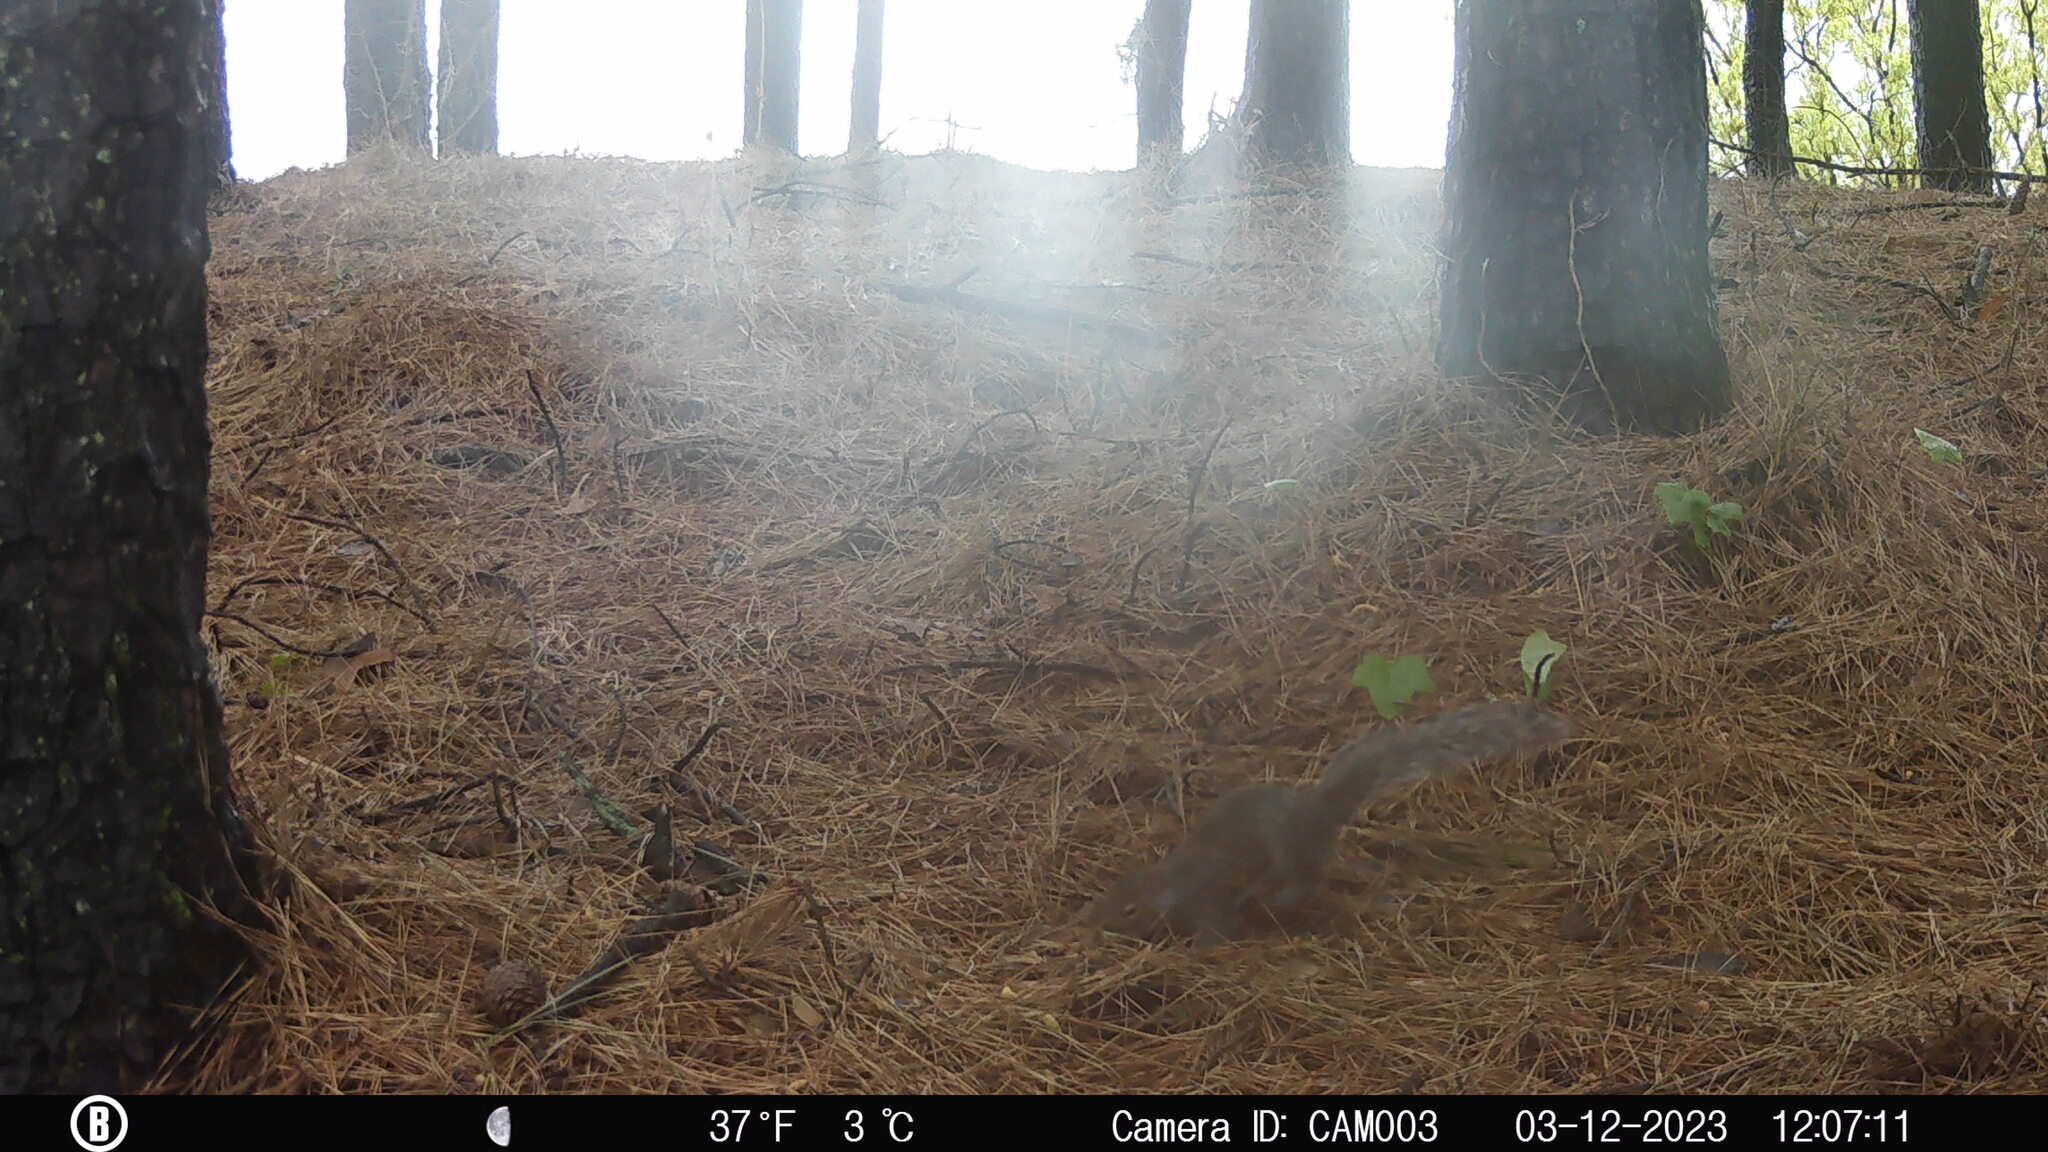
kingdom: Animalia
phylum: Chordata
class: Mammalia
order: Rodentia
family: Sciuridae
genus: Sciurus
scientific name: Sciurus carolinensis
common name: Eastern gray squirrel
